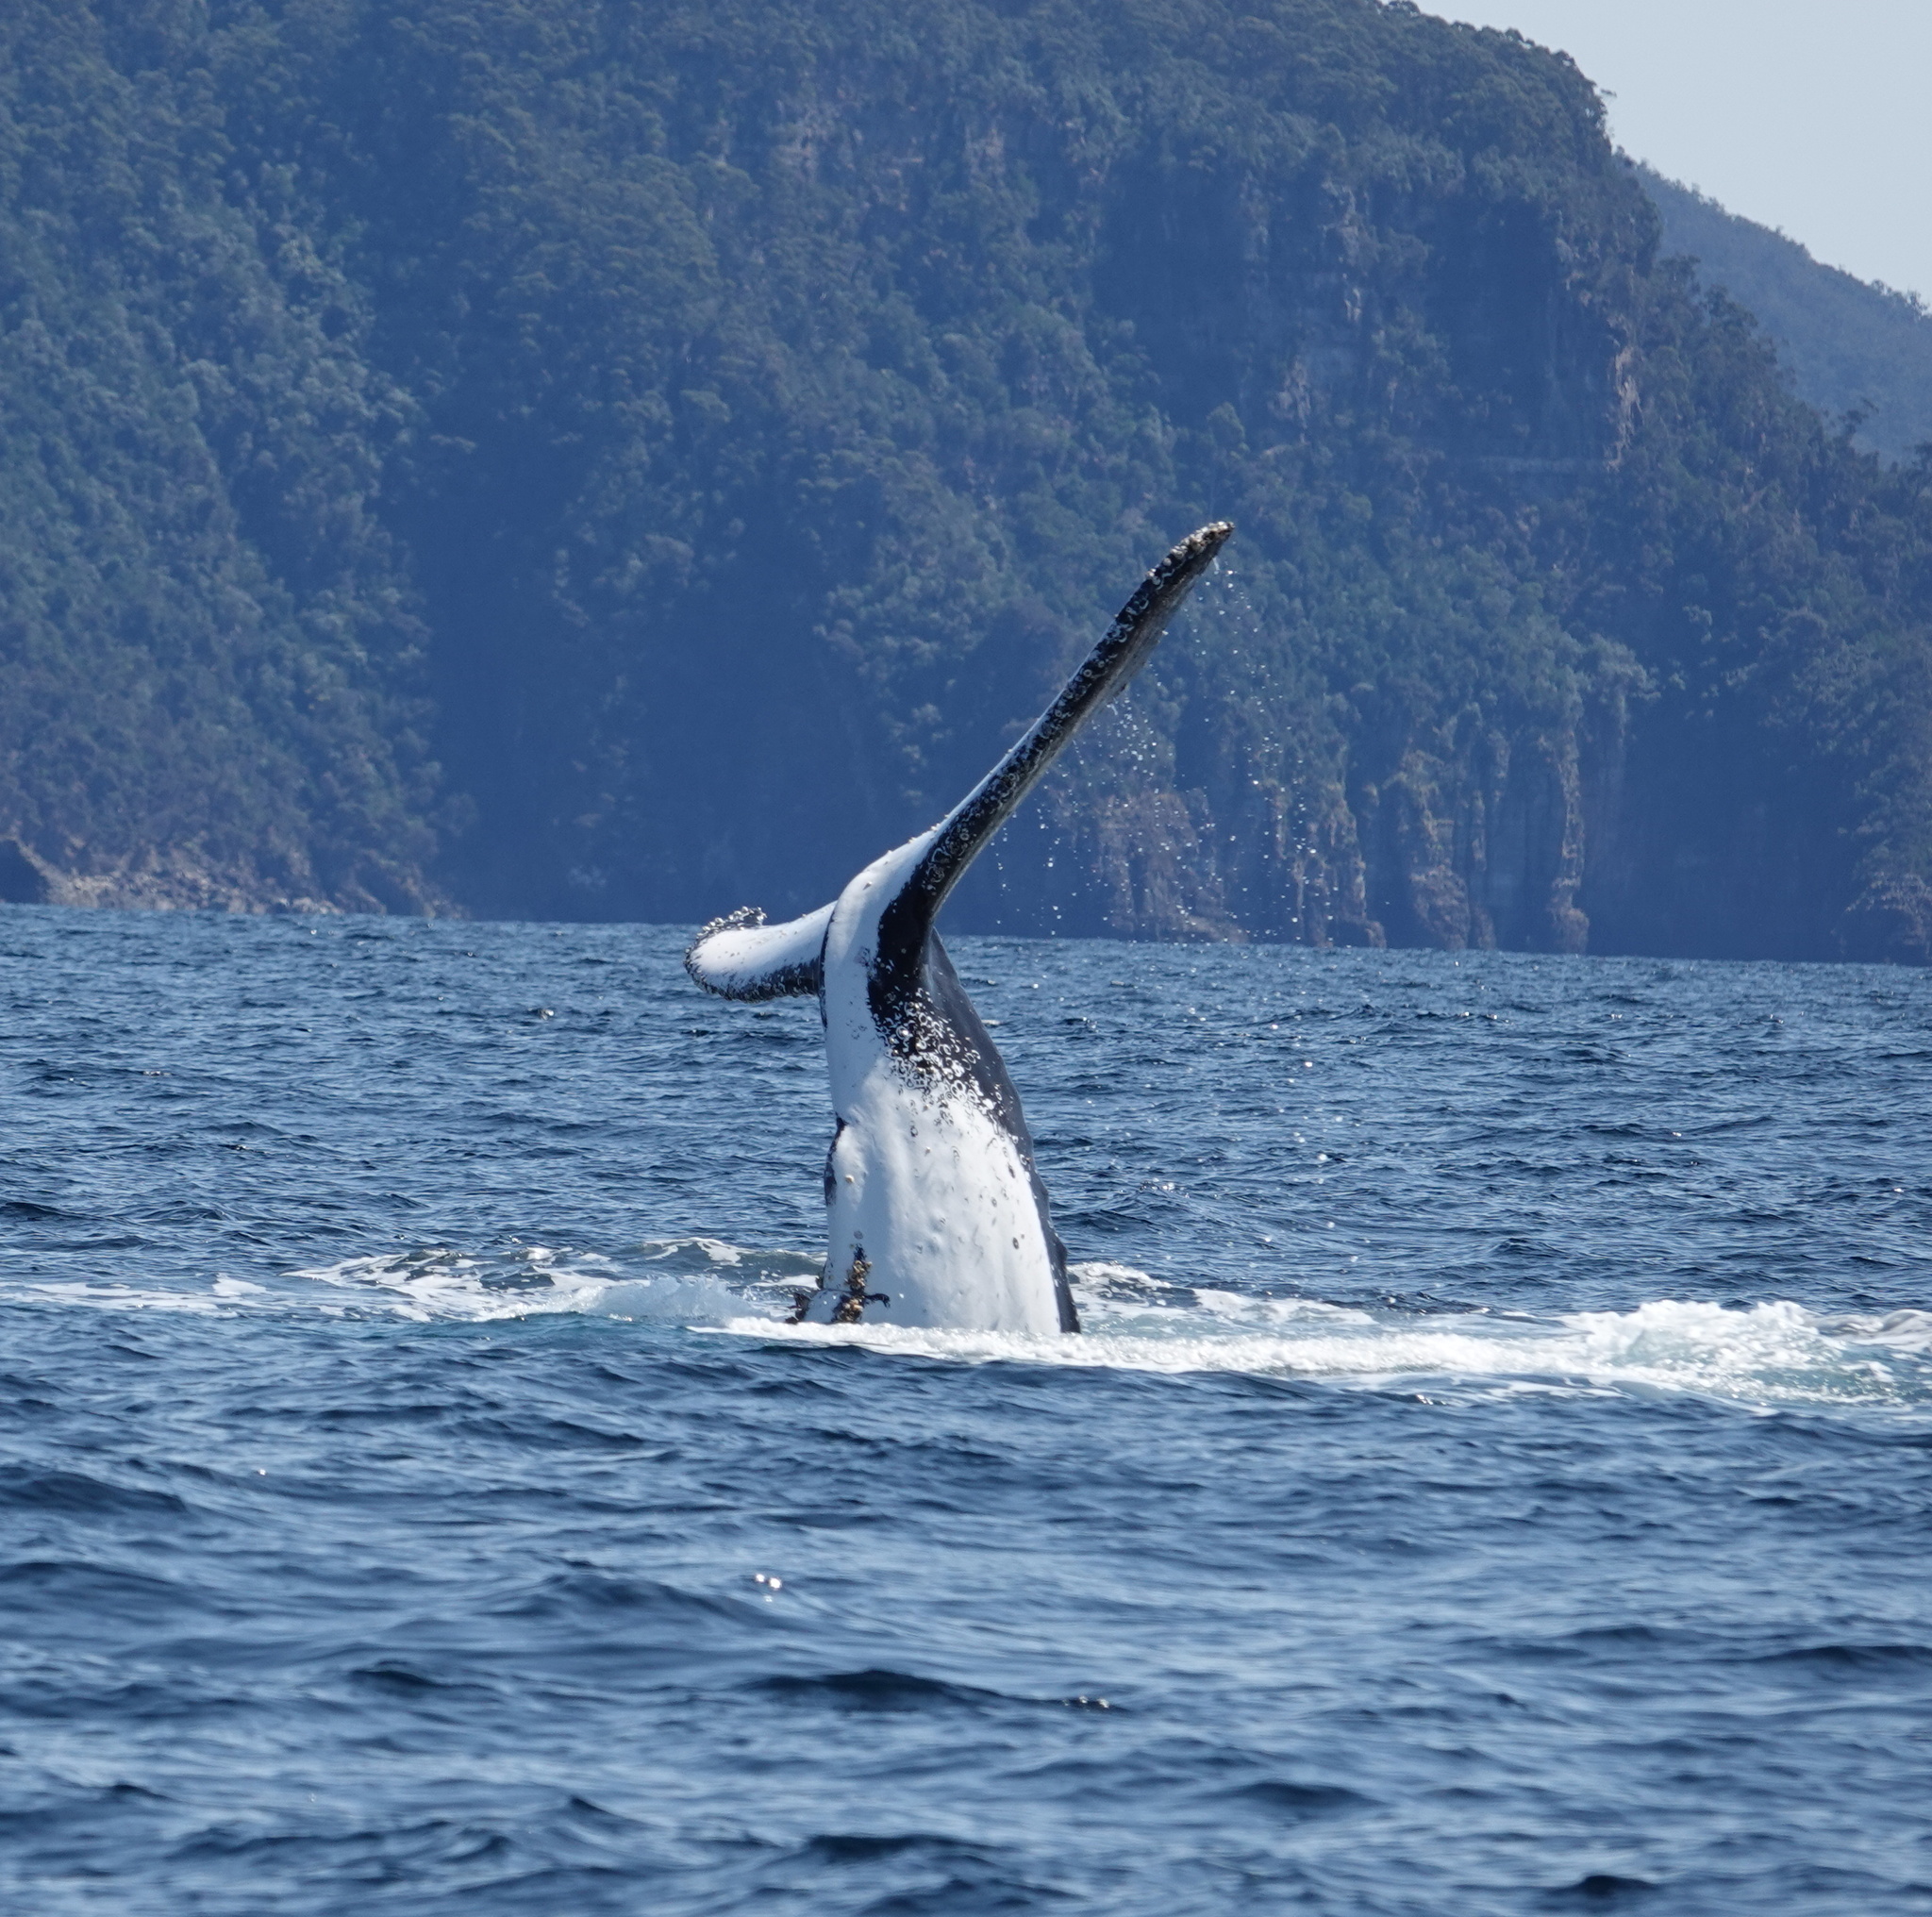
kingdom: Animalia
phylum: Chordata
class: Mammalia
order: Cetacea
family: Balaenopteridae
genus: Megaptera
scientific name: Megaptera novaeangliae
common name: Humpback whale
